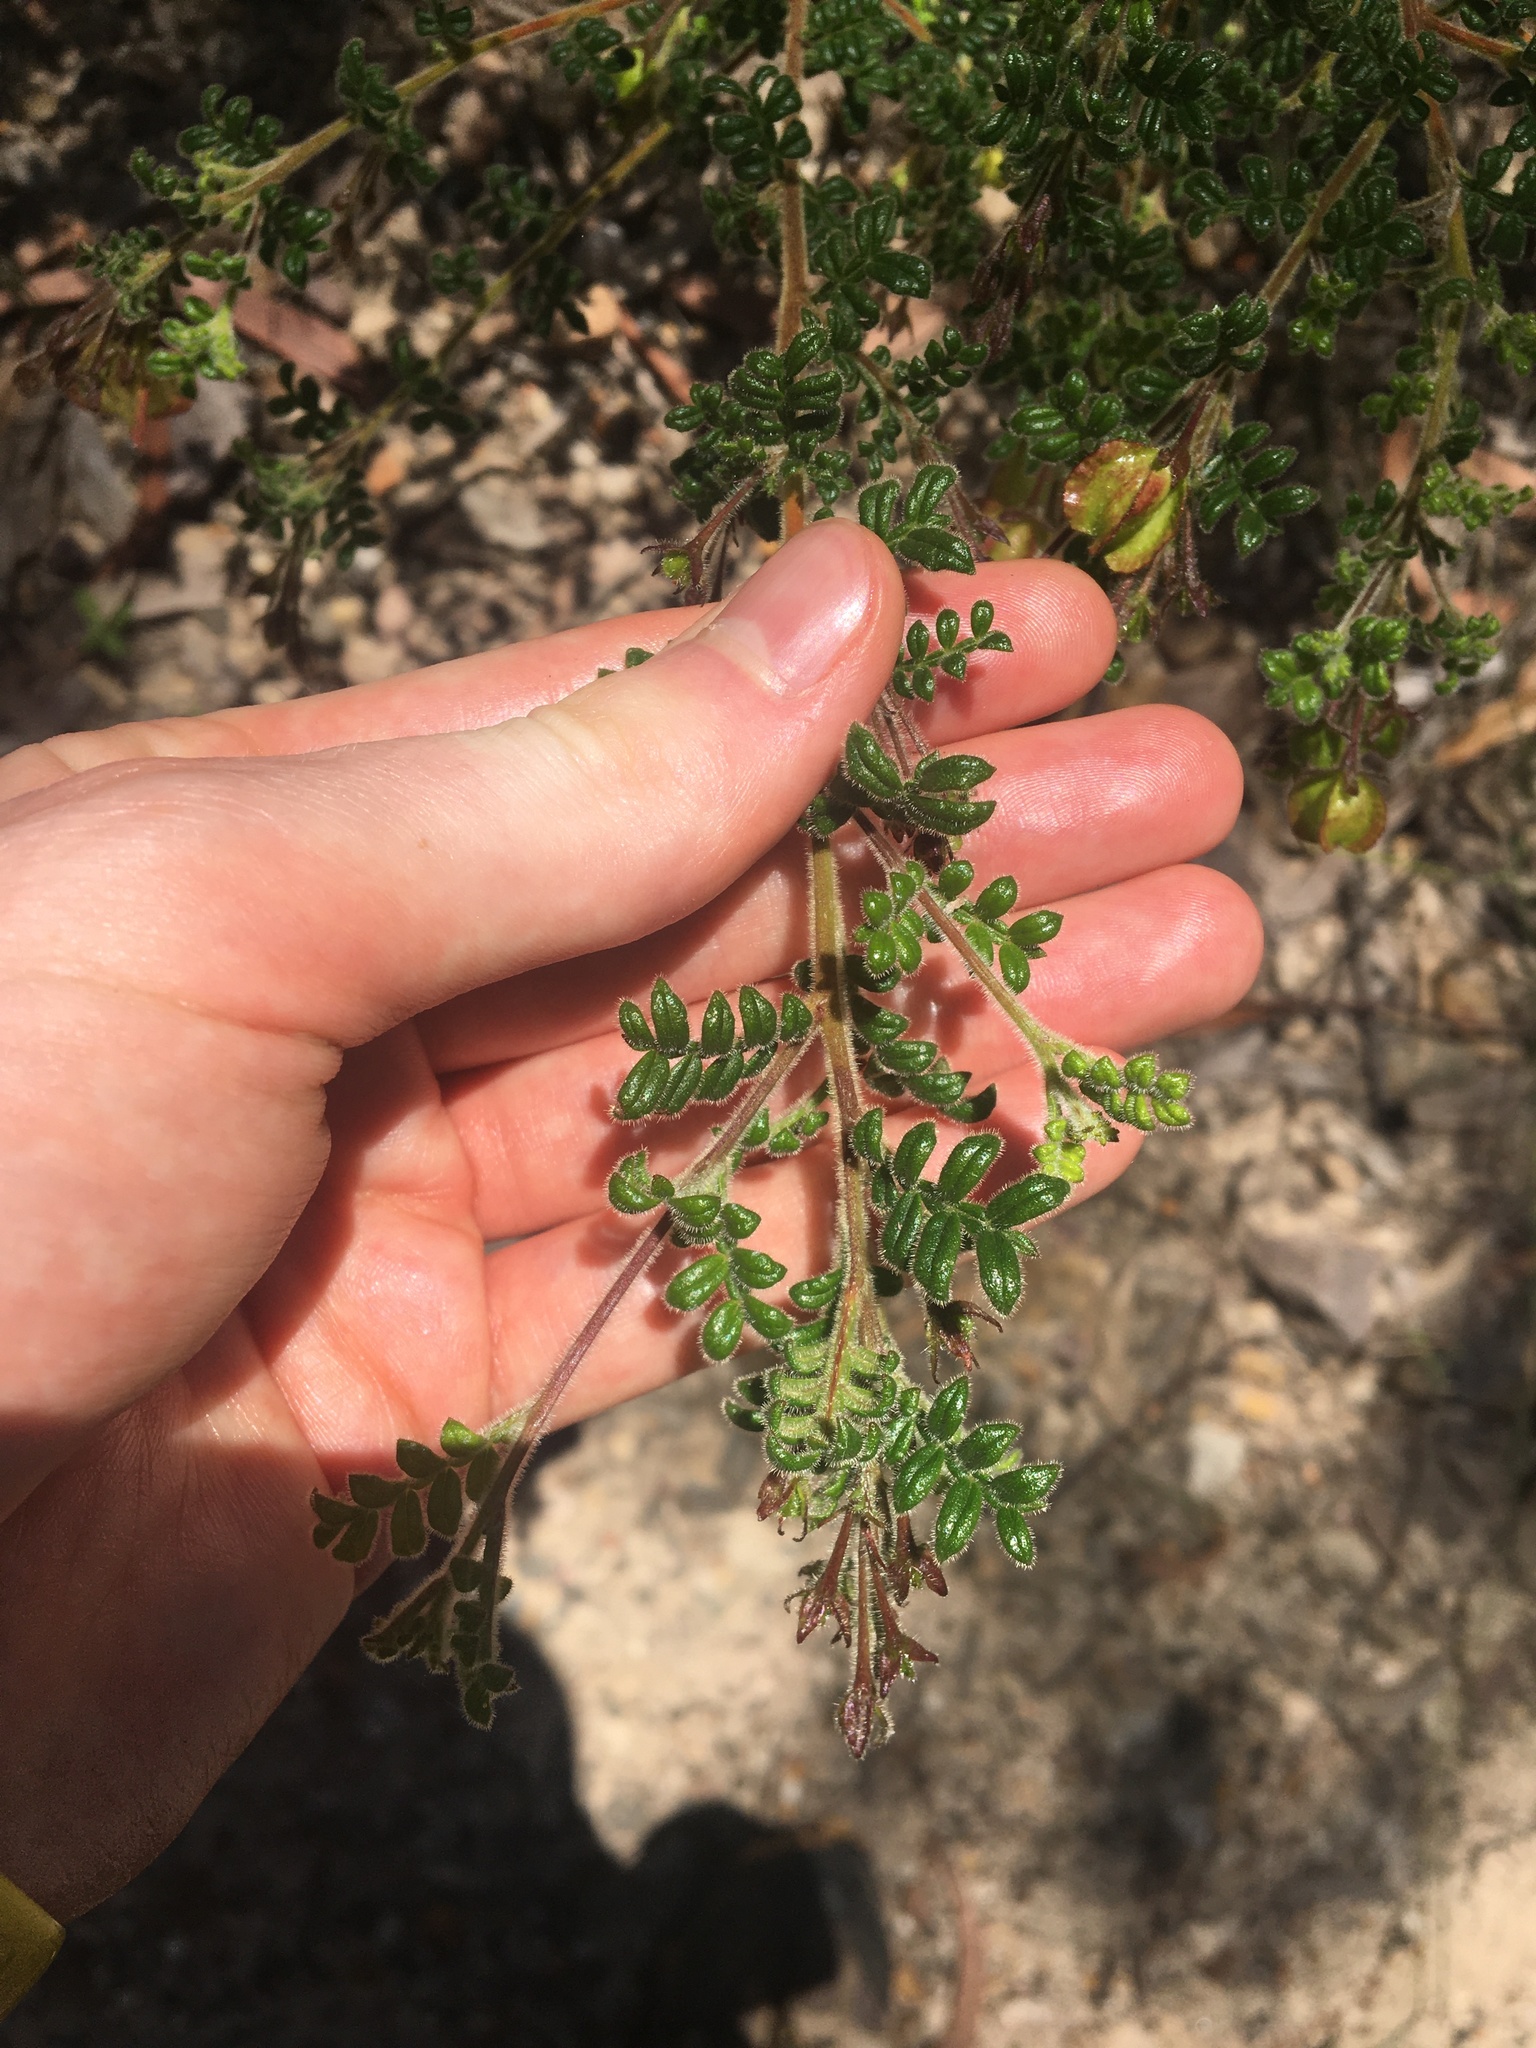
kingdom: Plantae
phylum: Tracheophyta
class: Magnoliopsida
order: Sapindales
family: Sapindaceae
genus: Dodonaea
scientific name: Dodonaea pinnata
